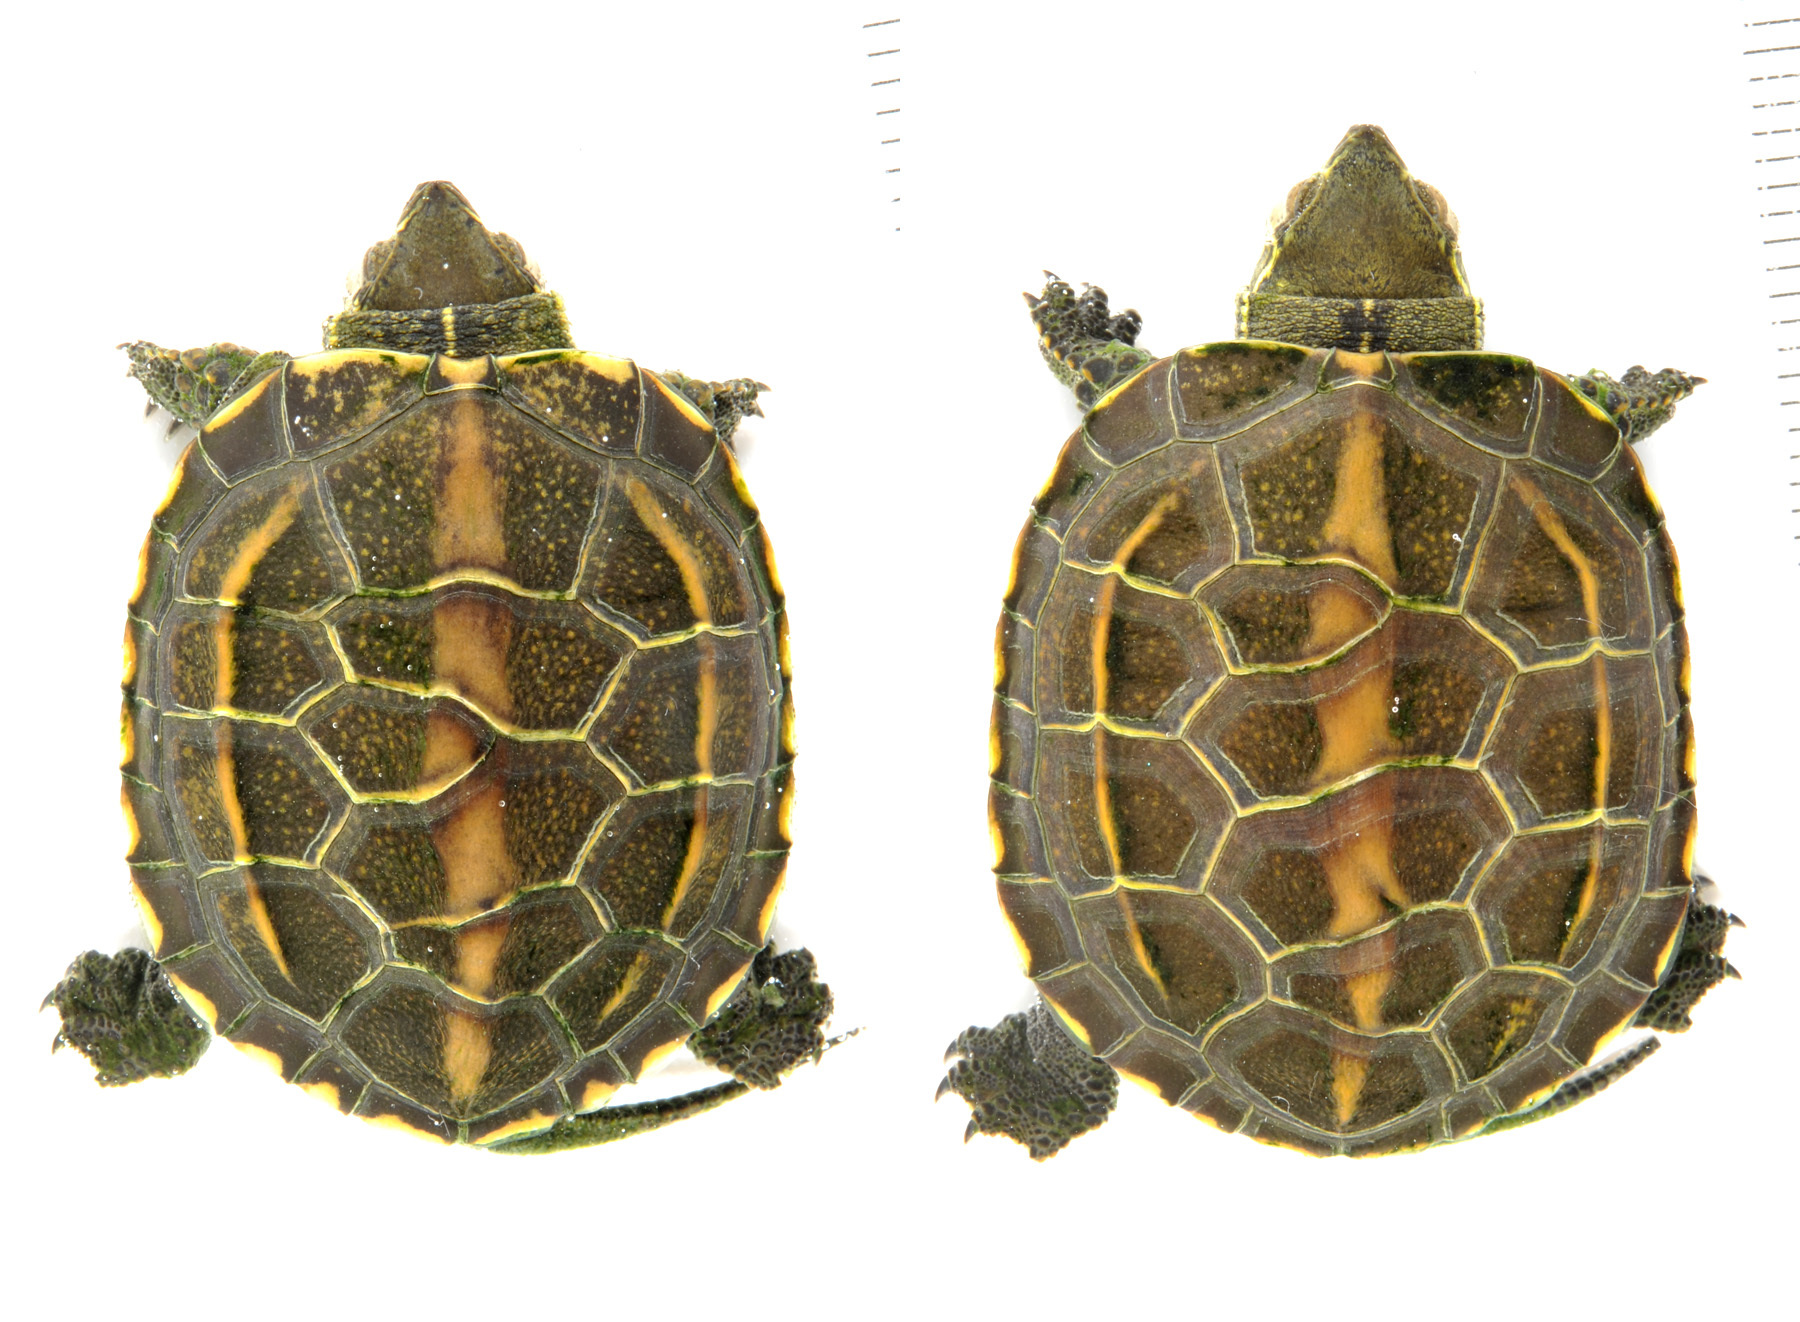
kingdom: Animalia
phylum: Chordata
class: Testudines
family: Geoemydidae
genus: Mauremys
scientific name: Mauremys reevesii
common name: Chinese pond turtle
